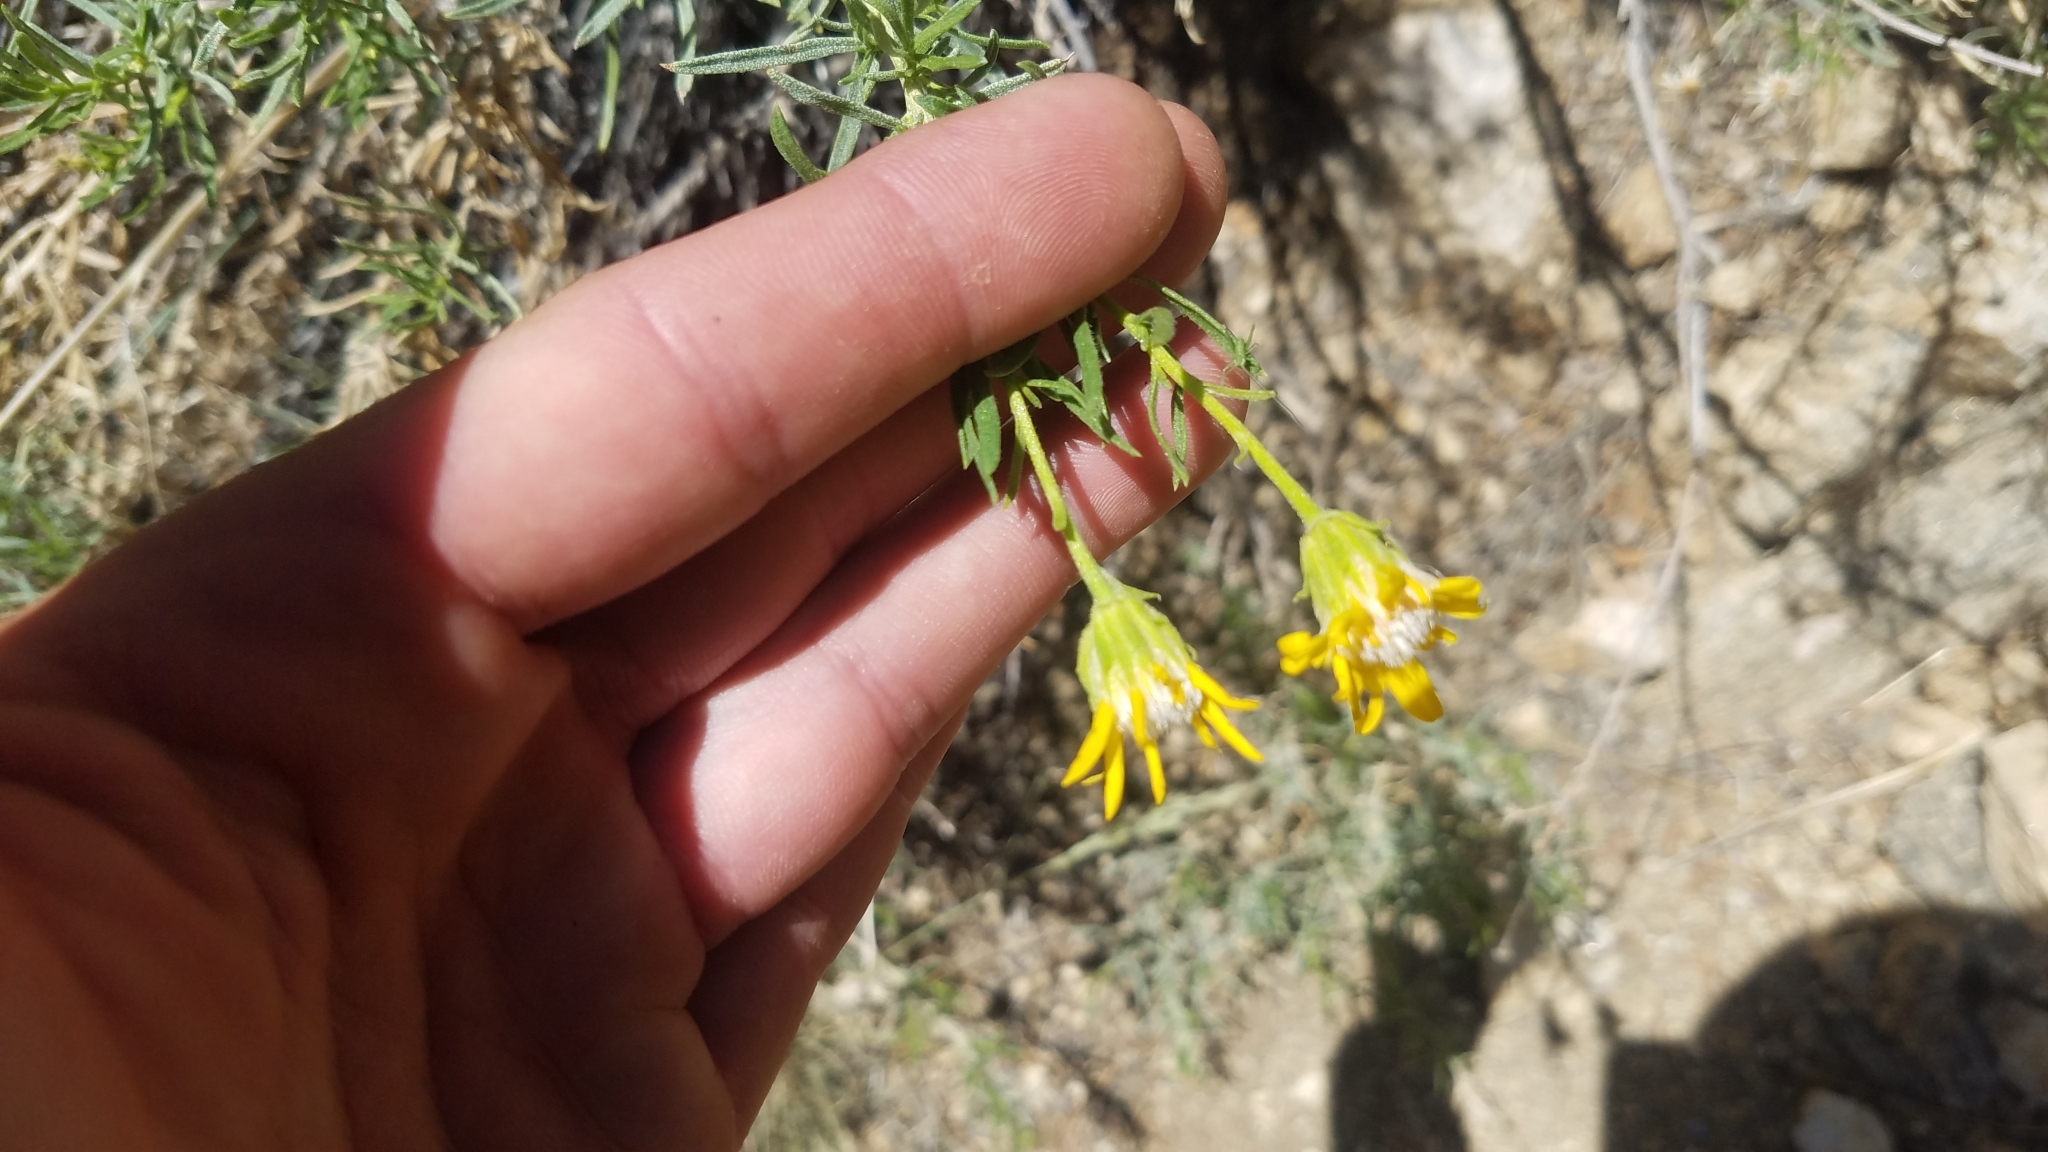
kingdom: Plantae
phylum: Tracheophyta
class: Magnoliopsida
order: Asterales
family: Asteraceae
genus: Ericameria
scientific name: Ericameria linearifolia
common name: Interior goldenbush
